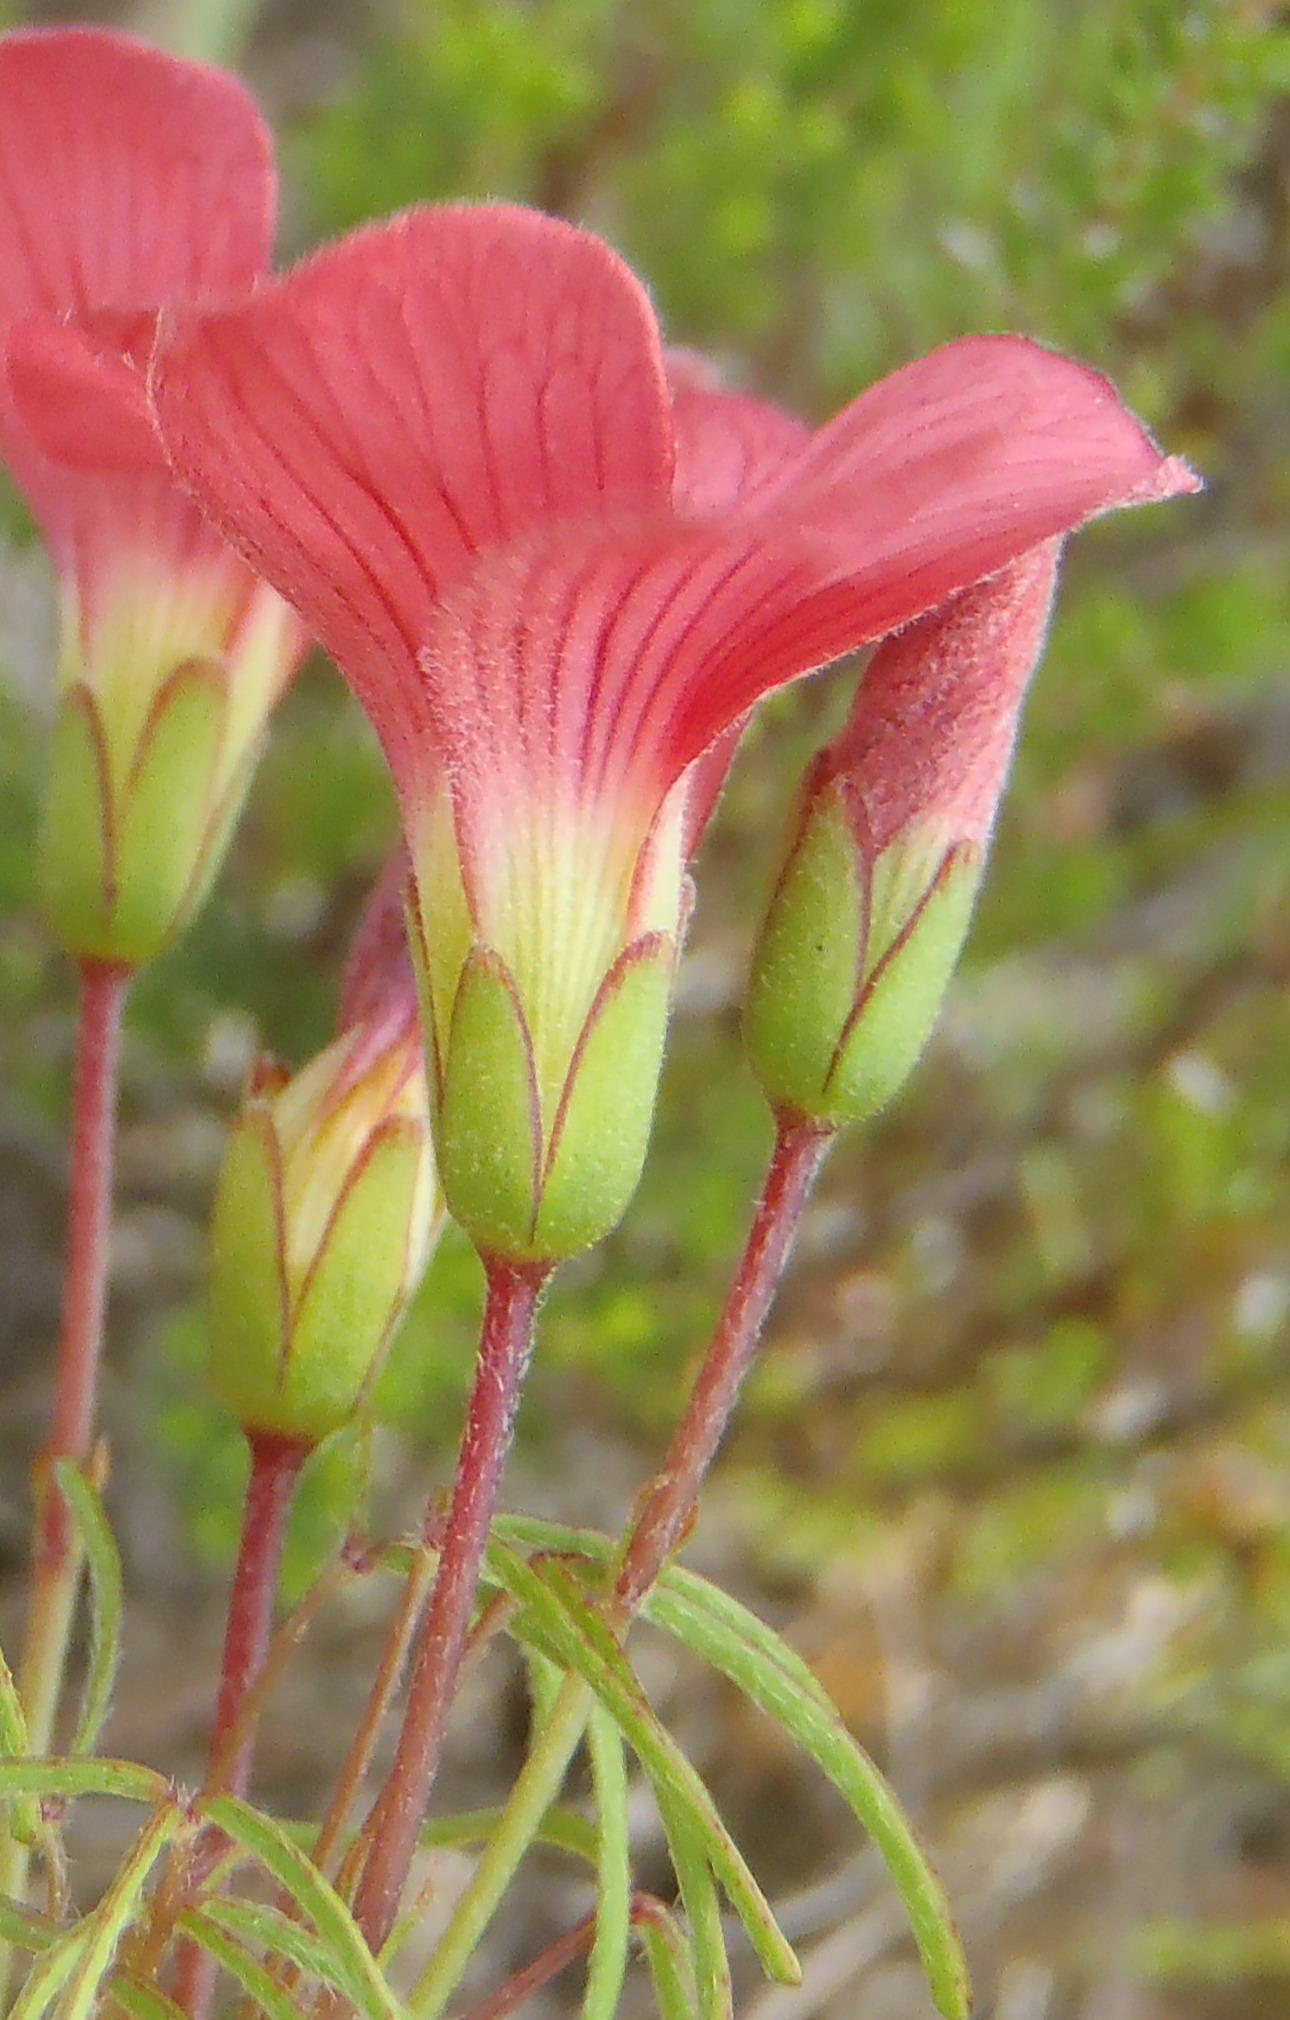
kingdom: Plantae
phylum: Tracheophyta
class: Magnoliopsida
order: Oxalidales
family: Oxalidaceae
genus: Oxalis
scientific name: Oxalis pendulifolia
